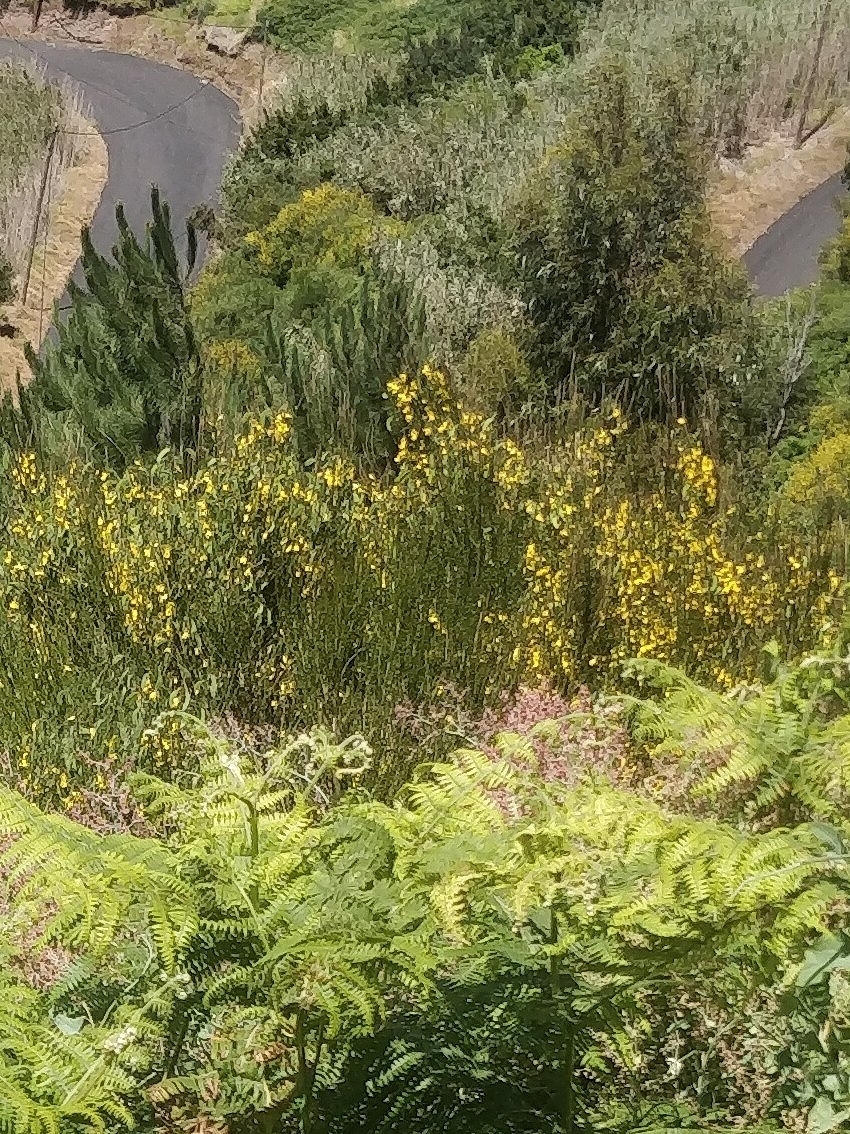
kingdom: Plantae
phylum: Tracheophyta
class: Magnoliopsida
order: Fabales
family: Fabaceae
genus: Cytisus
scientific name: Cytisus scoparius
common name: Scotch broom
